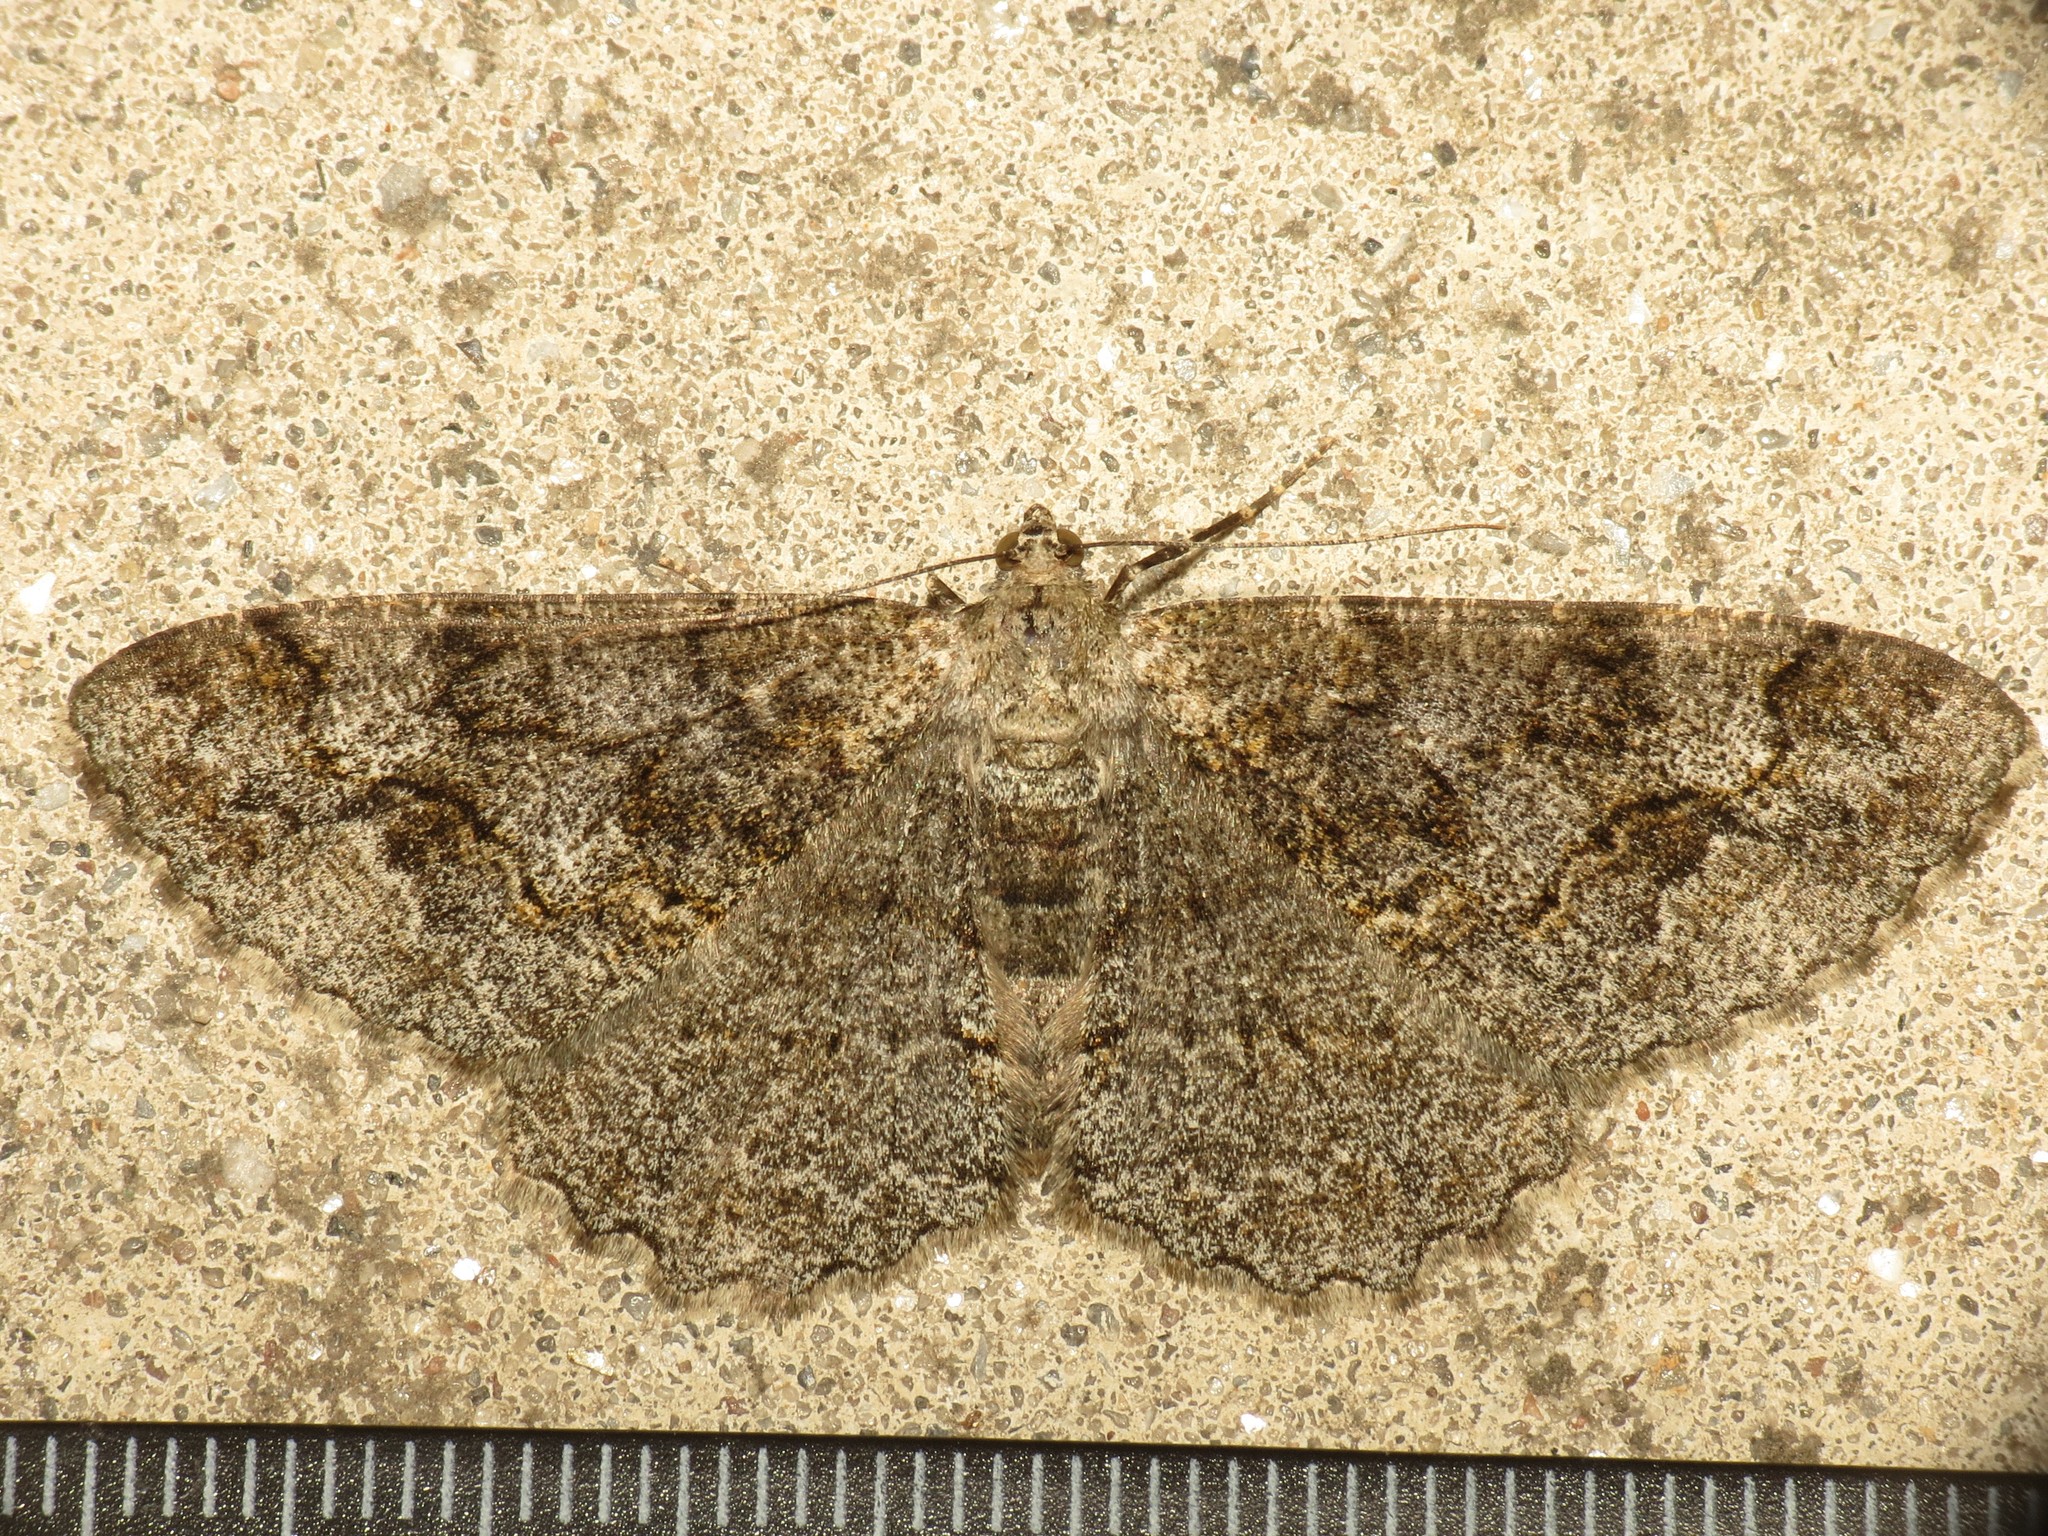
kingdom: Animalia
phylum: Arthropoda
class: Insecta
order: Lepidoptera
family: Geometridae
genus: Alcis
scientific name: Alcis repandata
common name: Mottled beauty
